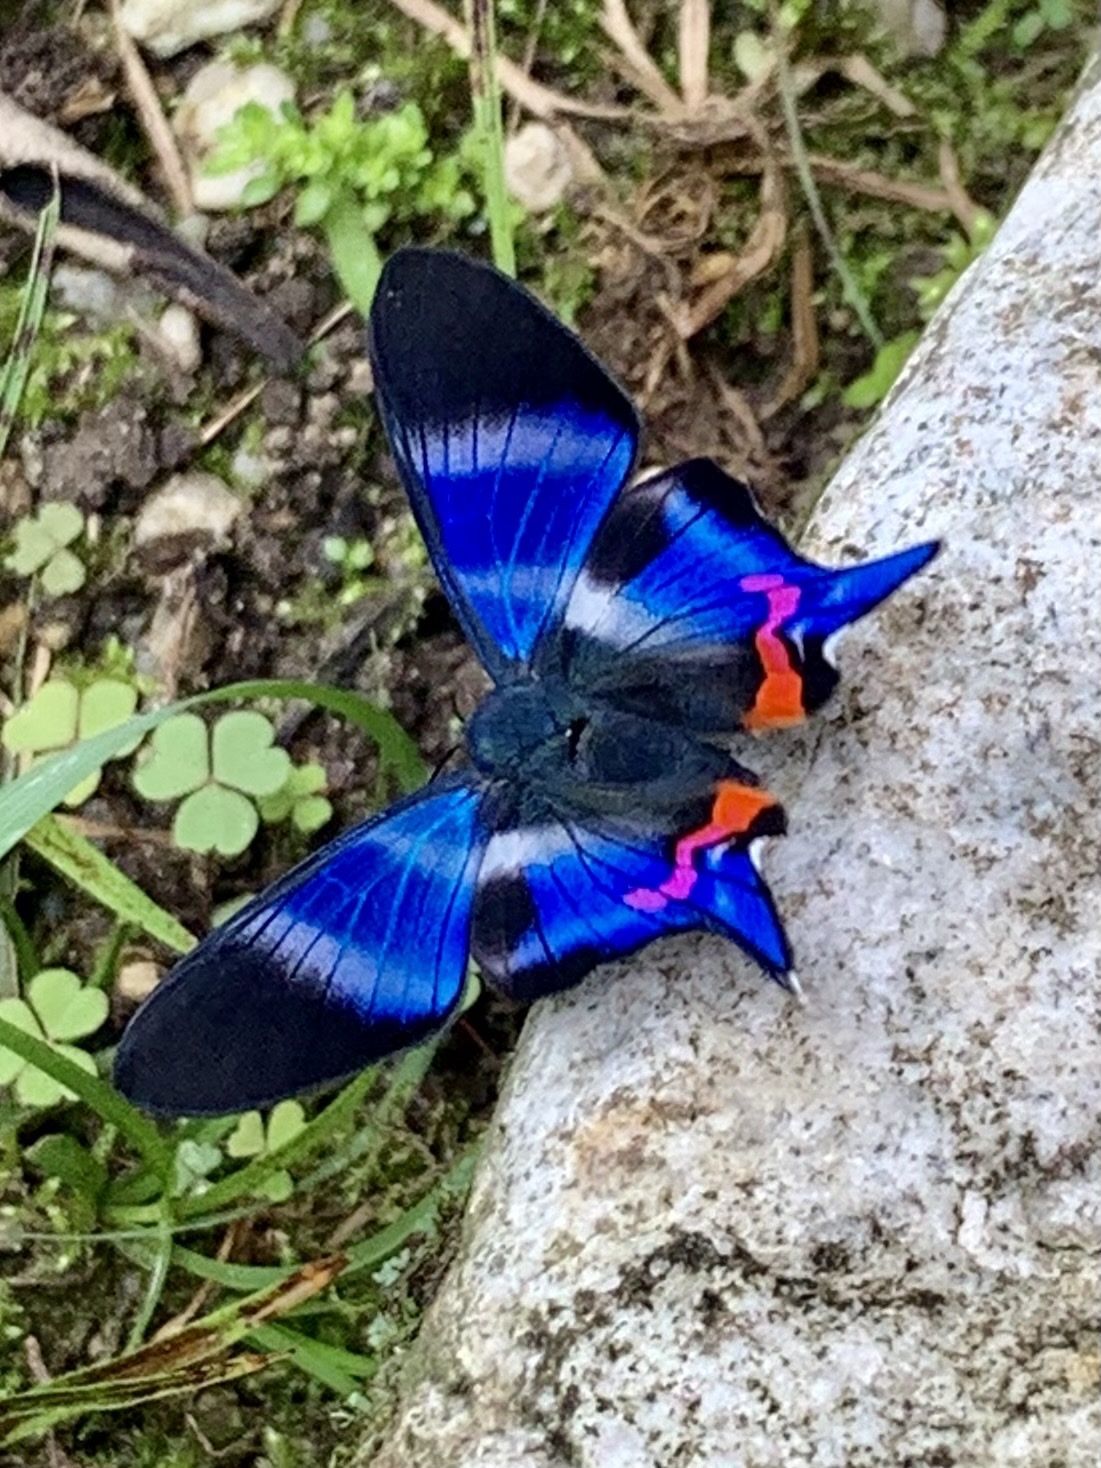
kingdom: Animalia
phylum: Arthropoda
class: Insecta
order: Lepidoptera
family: Riodinidae
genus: Rhetus
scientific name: Rhetus dysonii
